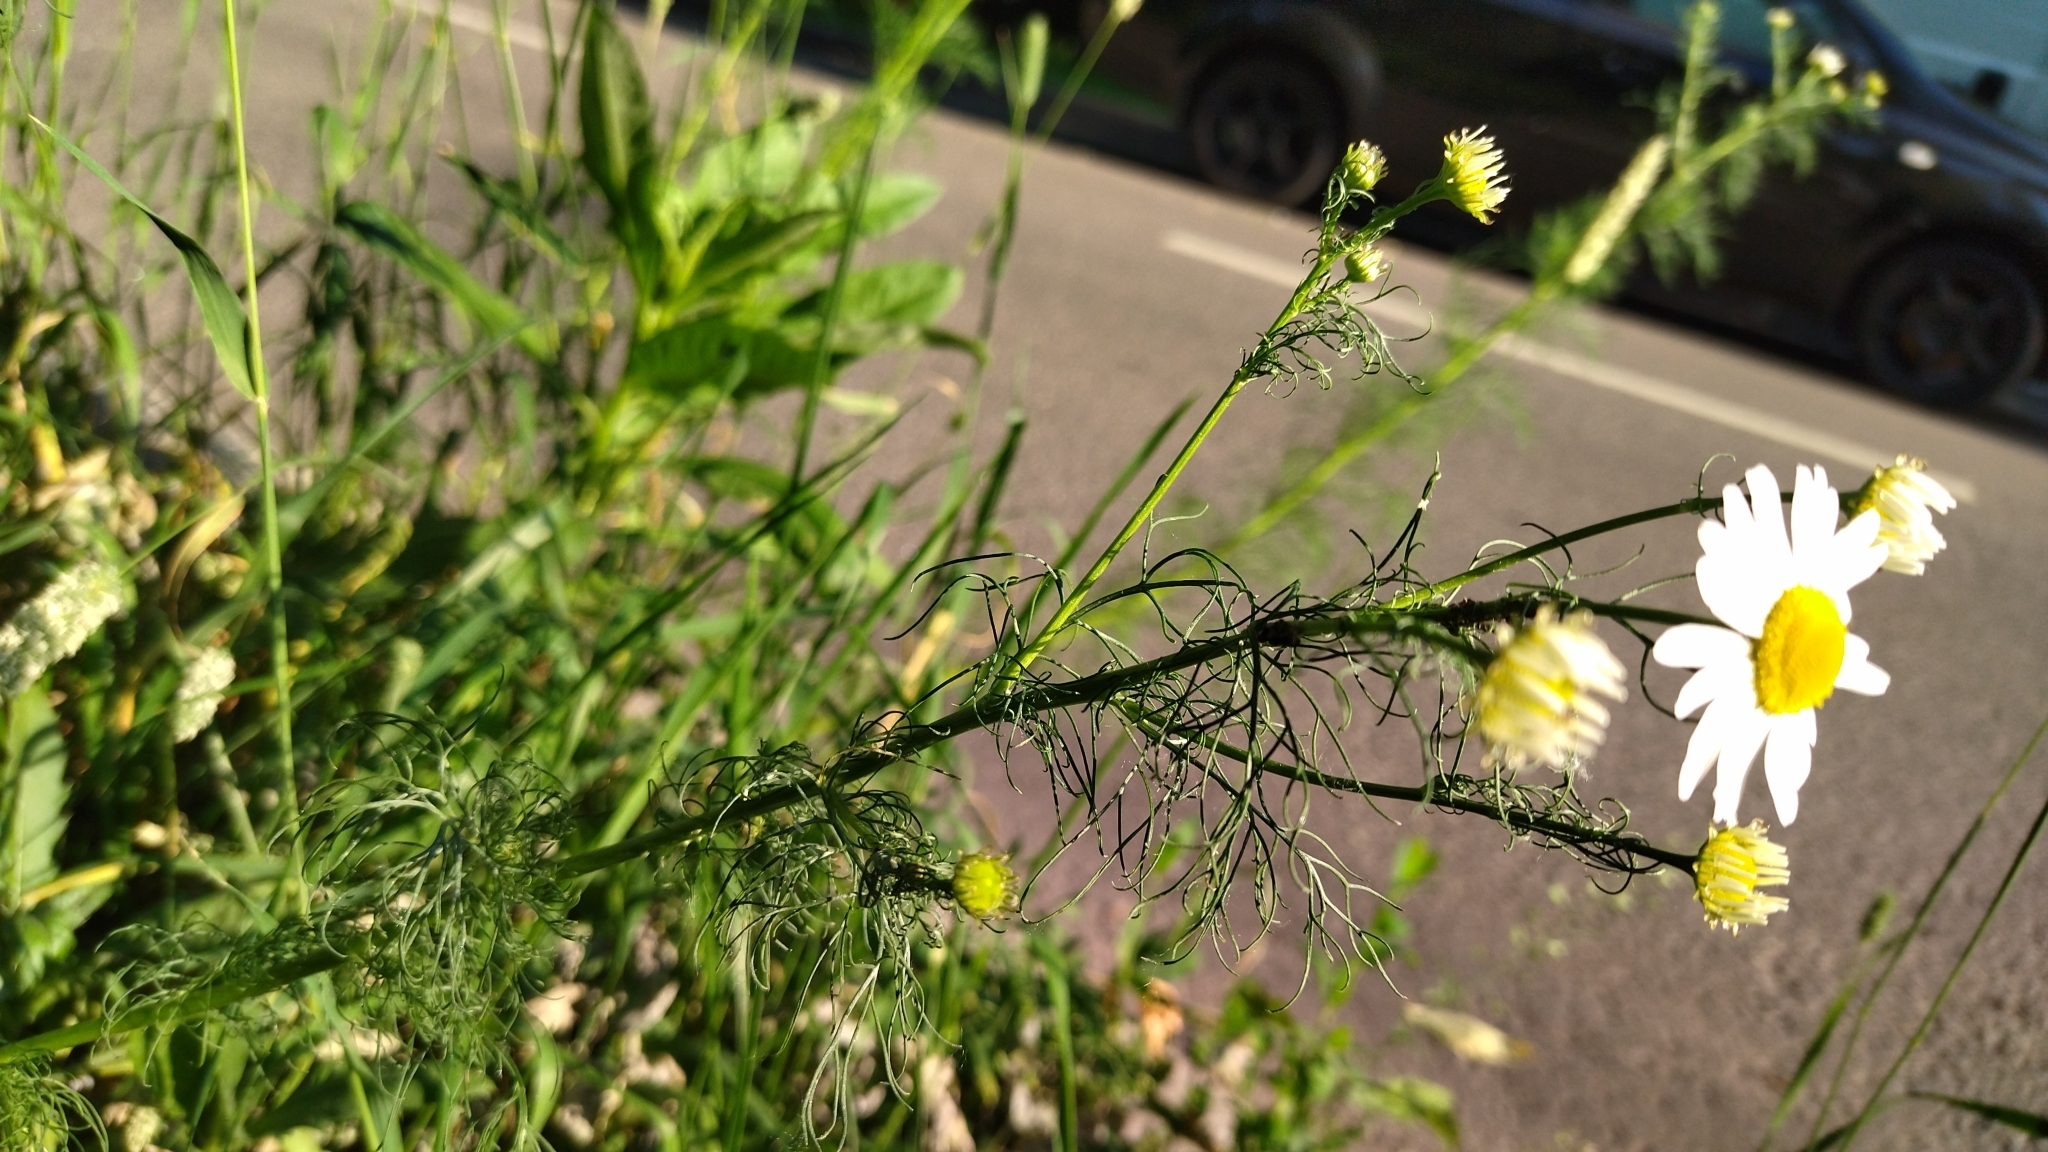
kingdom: Plantae
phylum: Tracheophyta
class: Magnoliopsida
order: Asterales
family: Asteraceae
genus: Tripleurospermum
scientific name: Tripleurospermum inodorum
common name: Scentless mayweed
